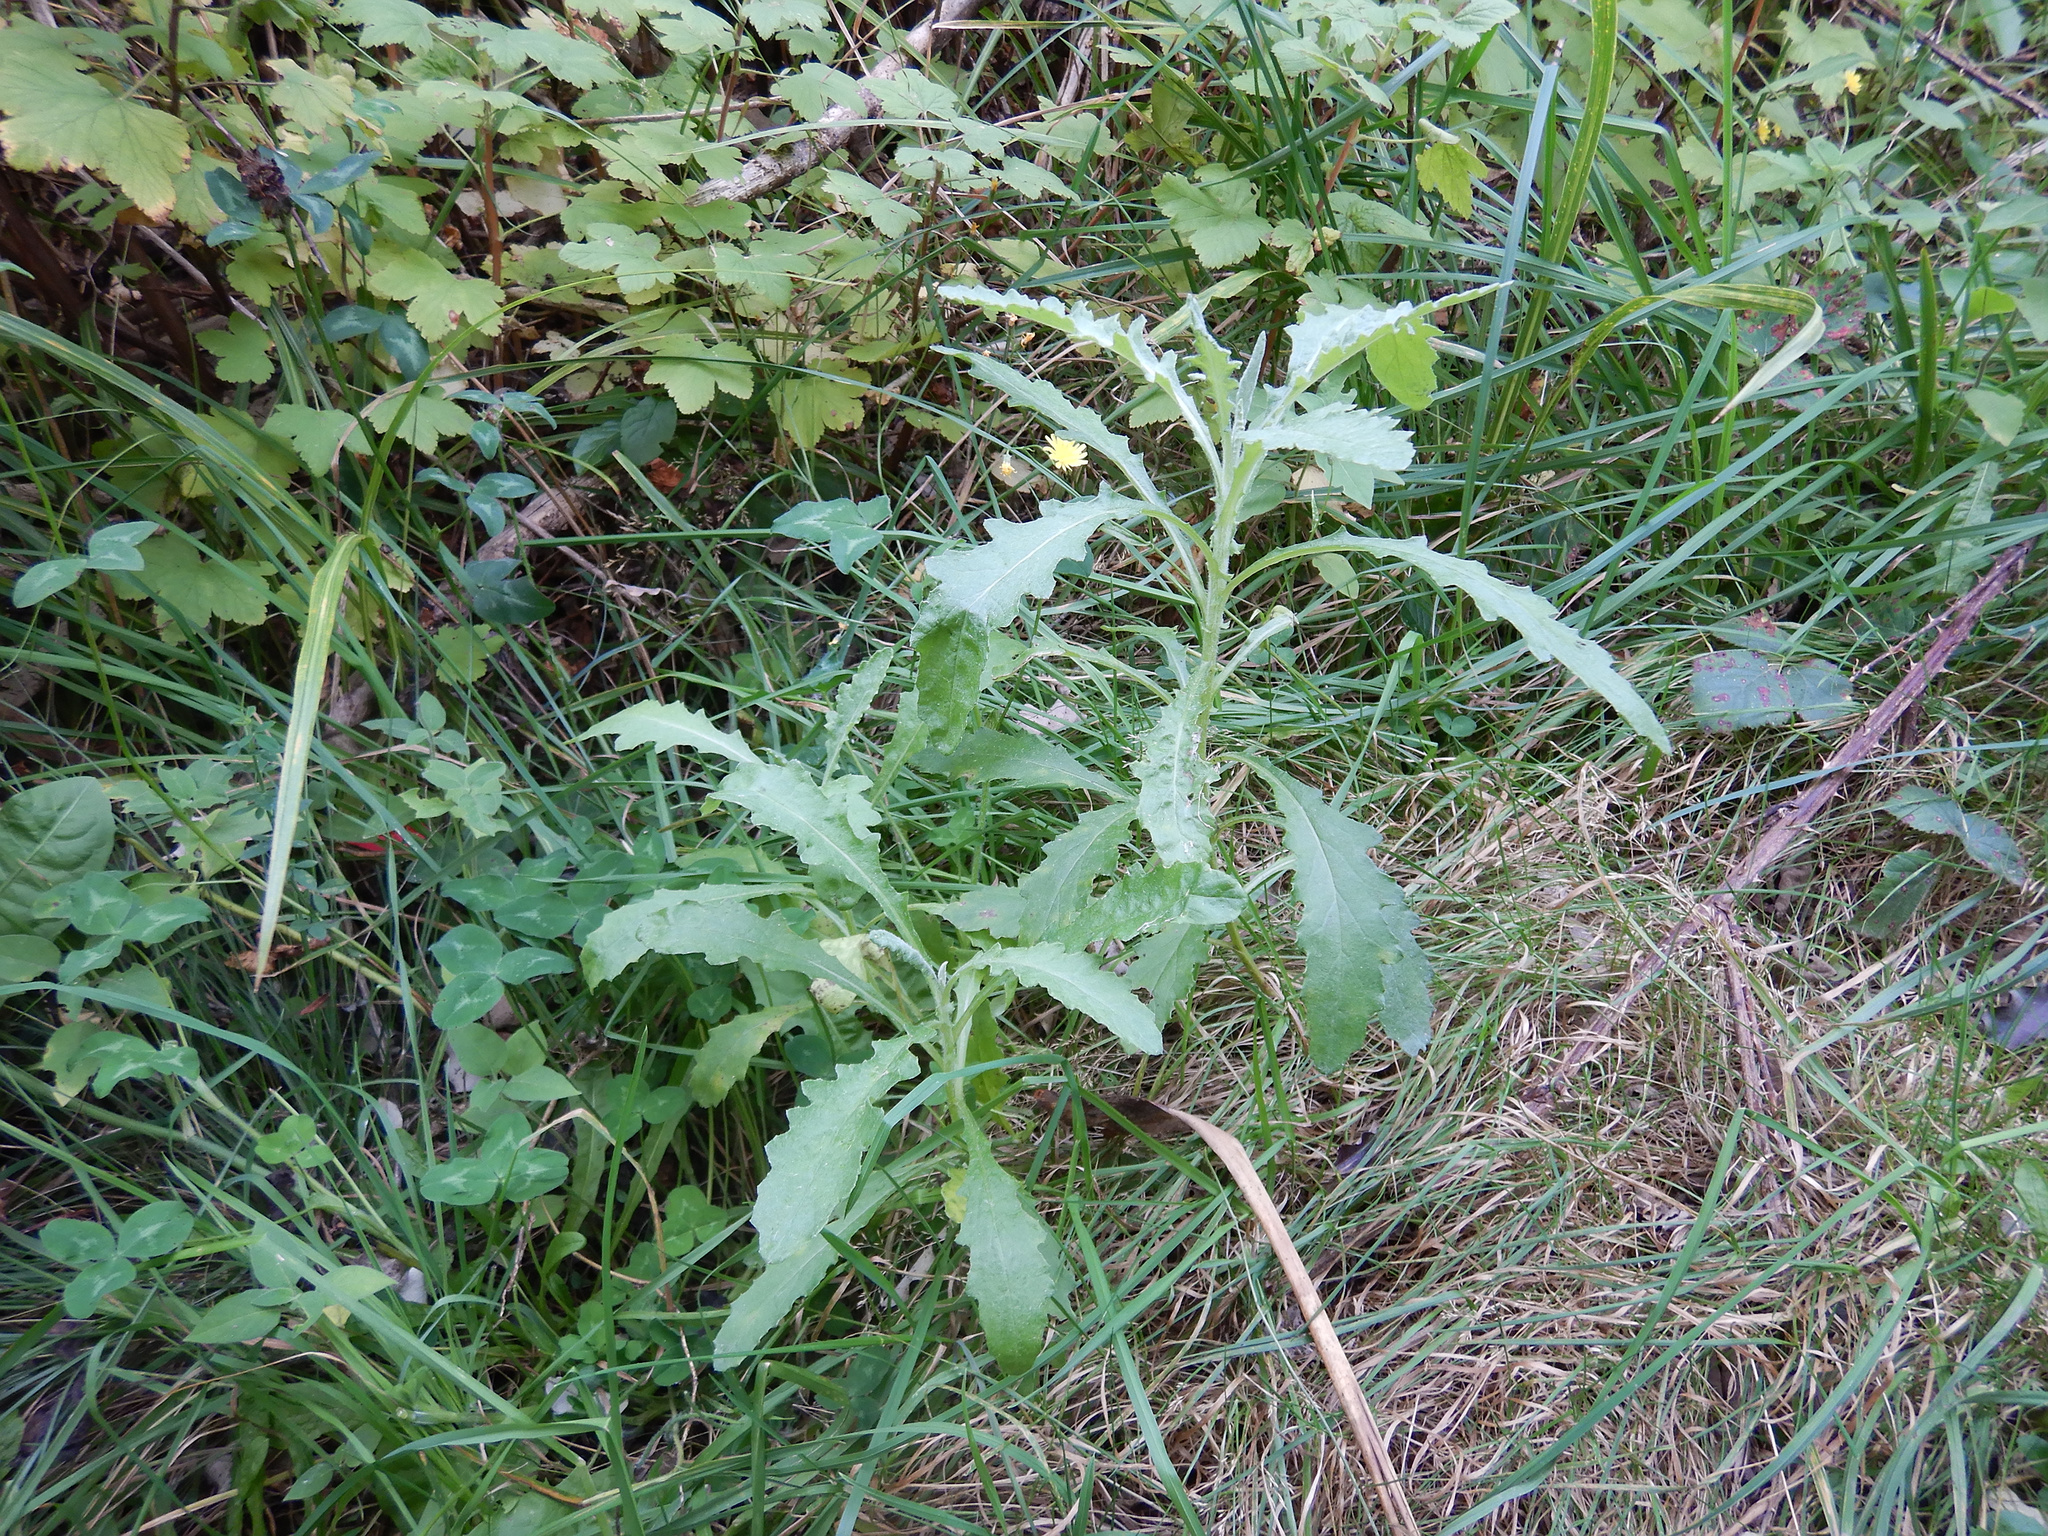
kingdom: Plantae
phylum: Tracheophyta
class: Magnoliopsida
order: Asterales
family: Asteraceae
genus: Senecio
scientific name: Senecio glomeratus
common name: Cutleaf burnweed
